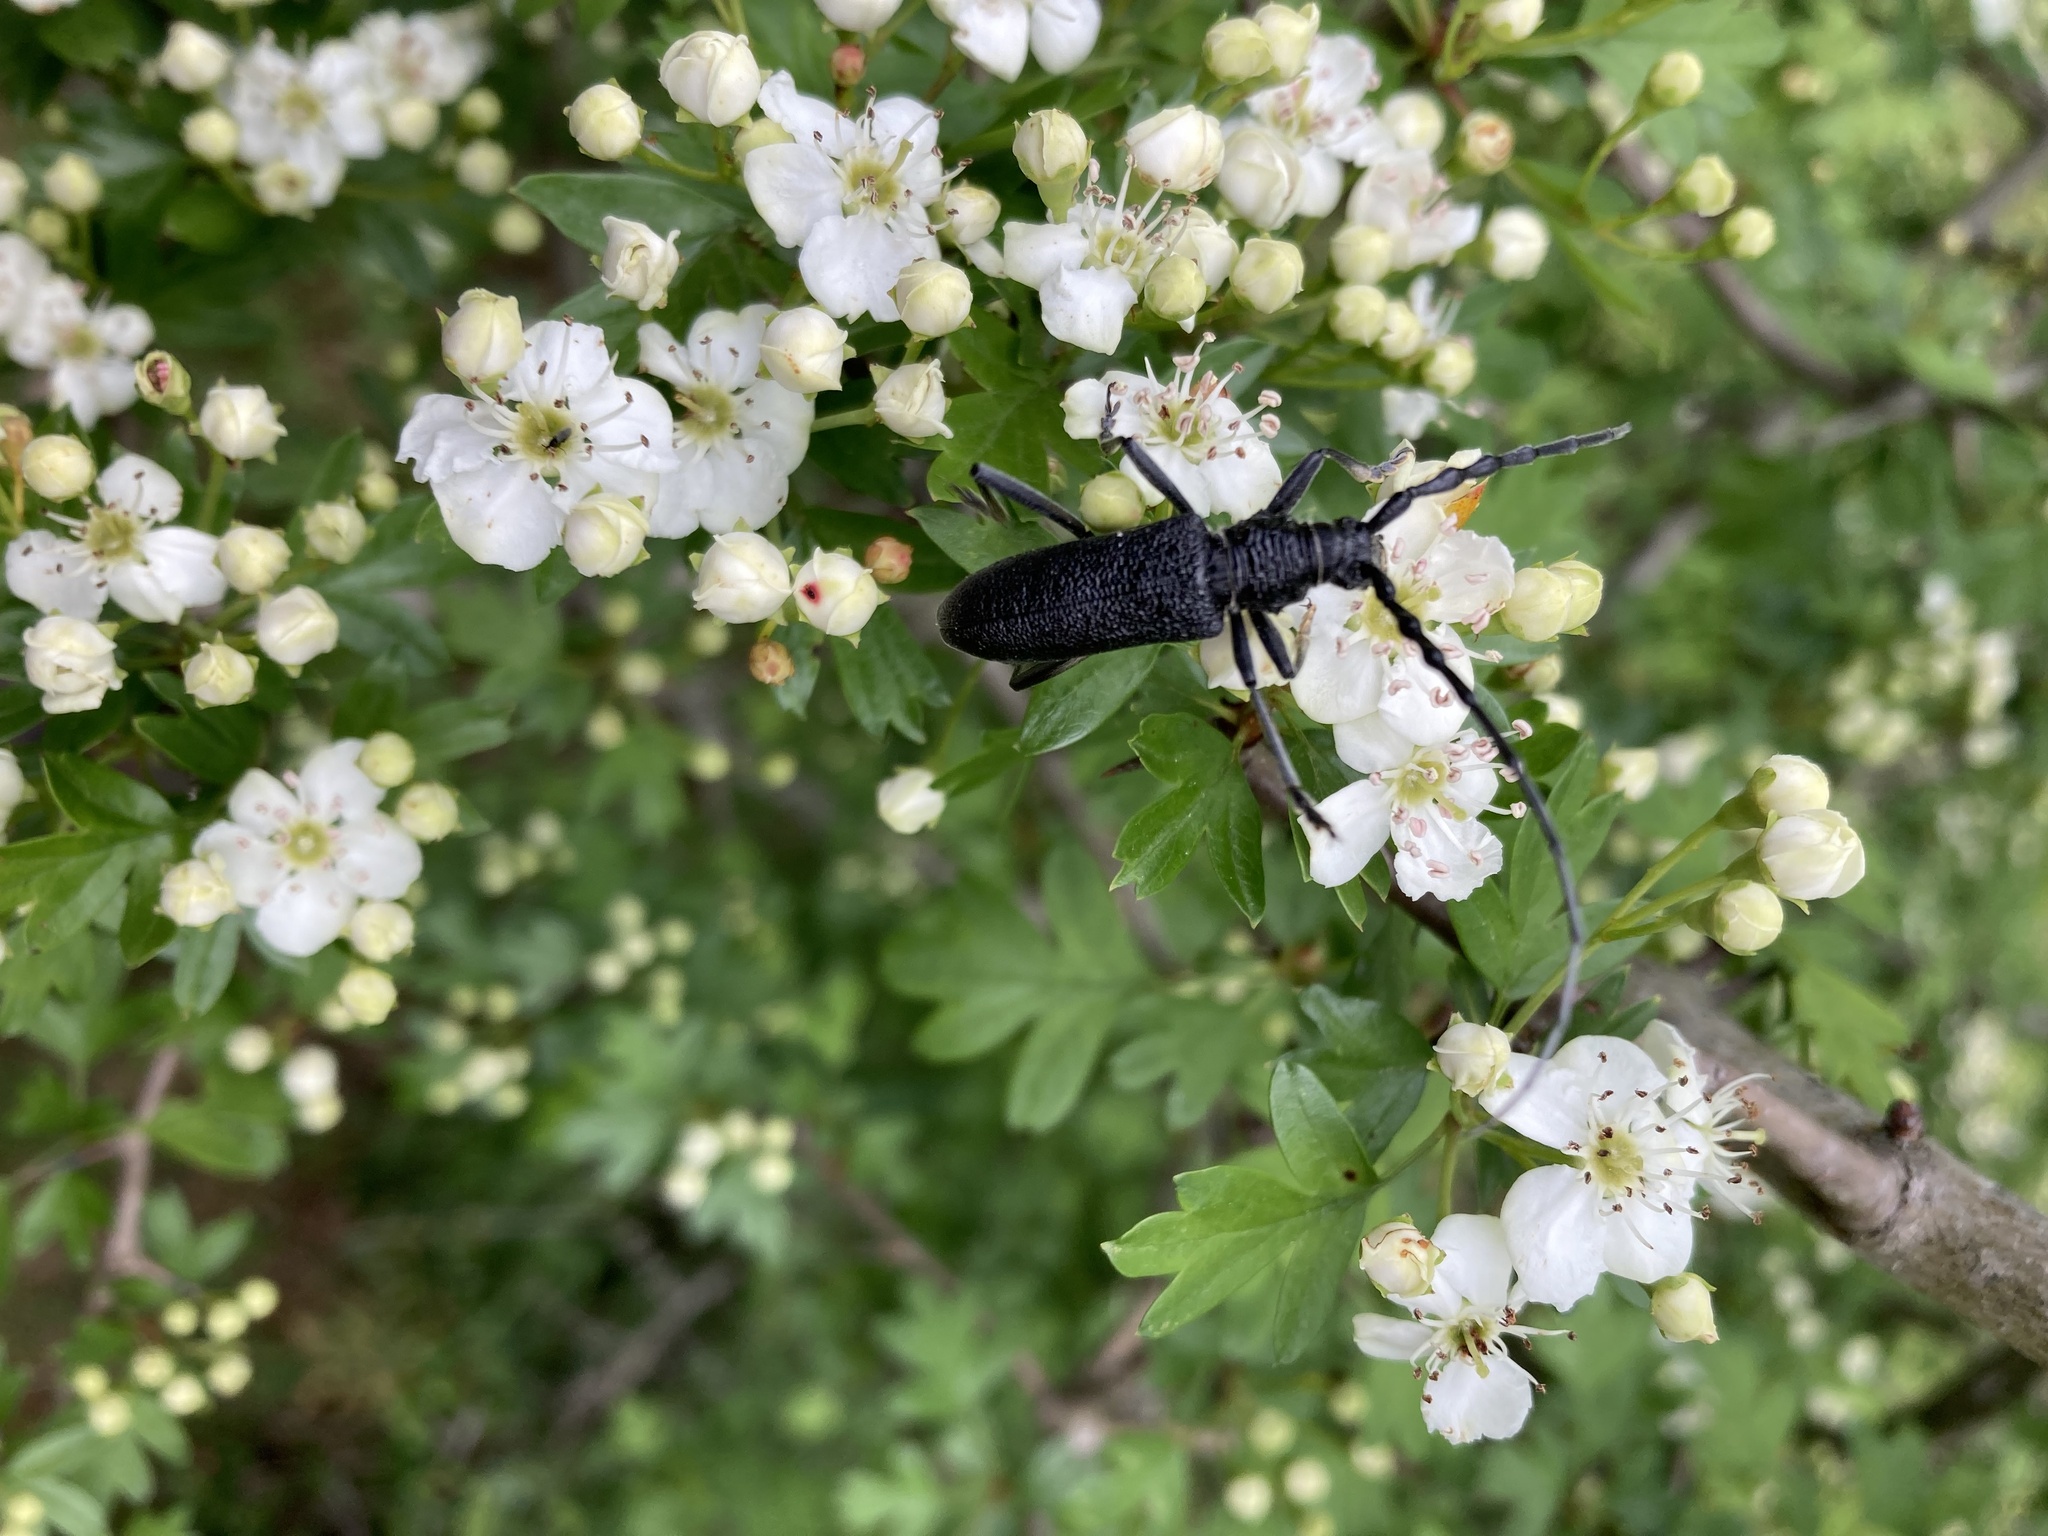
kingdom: Animalia
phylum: Arthropoda
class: Insecta
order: Coleoptera
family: Cerambycidae
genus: Cerambyx
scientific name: Cerambyx scopolii
